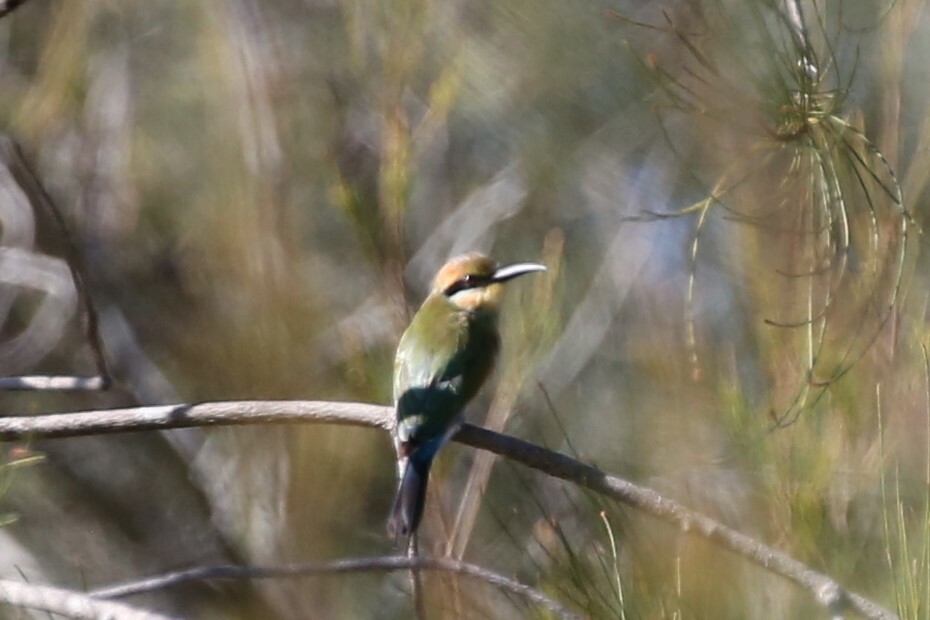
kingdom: Animalia
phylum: Chordata
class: Aves
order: Coraciiformes
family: Meropidae
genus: Merops
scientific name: Merops ornatus
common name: Rainbow bee-eater
